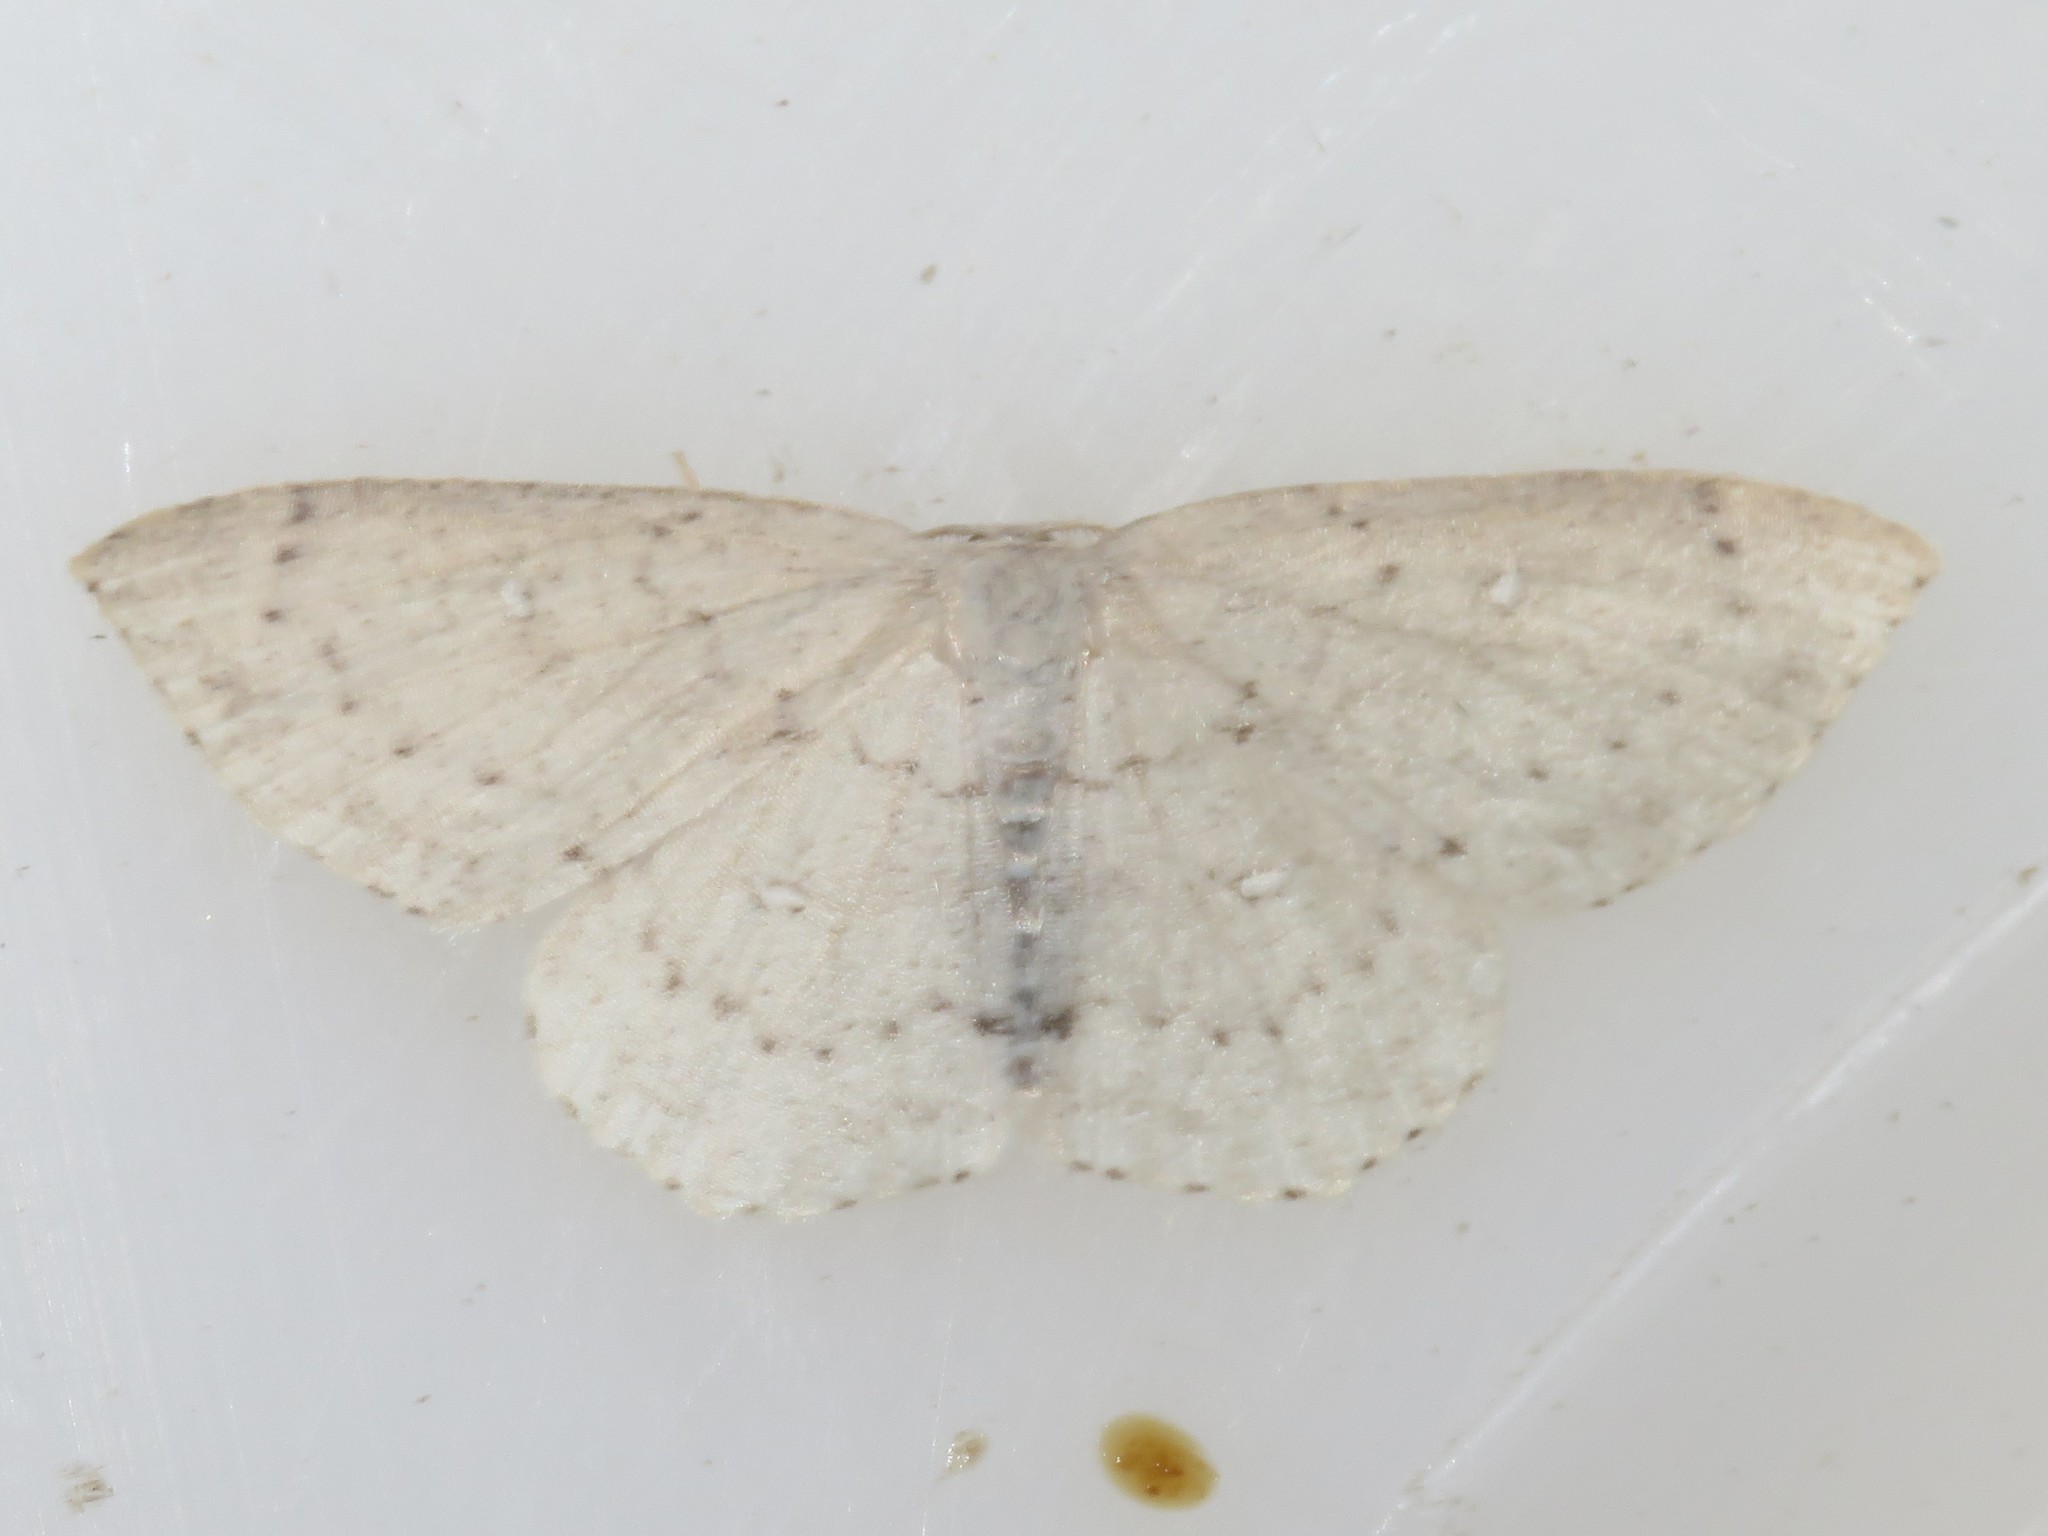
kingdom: Animalia
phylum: Arthropoda
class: Insecta
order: Lepidoptera
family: Geometridae
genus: Cyclophora
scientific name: Cyclophora pendulinaria
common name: Sweet fern geometer
